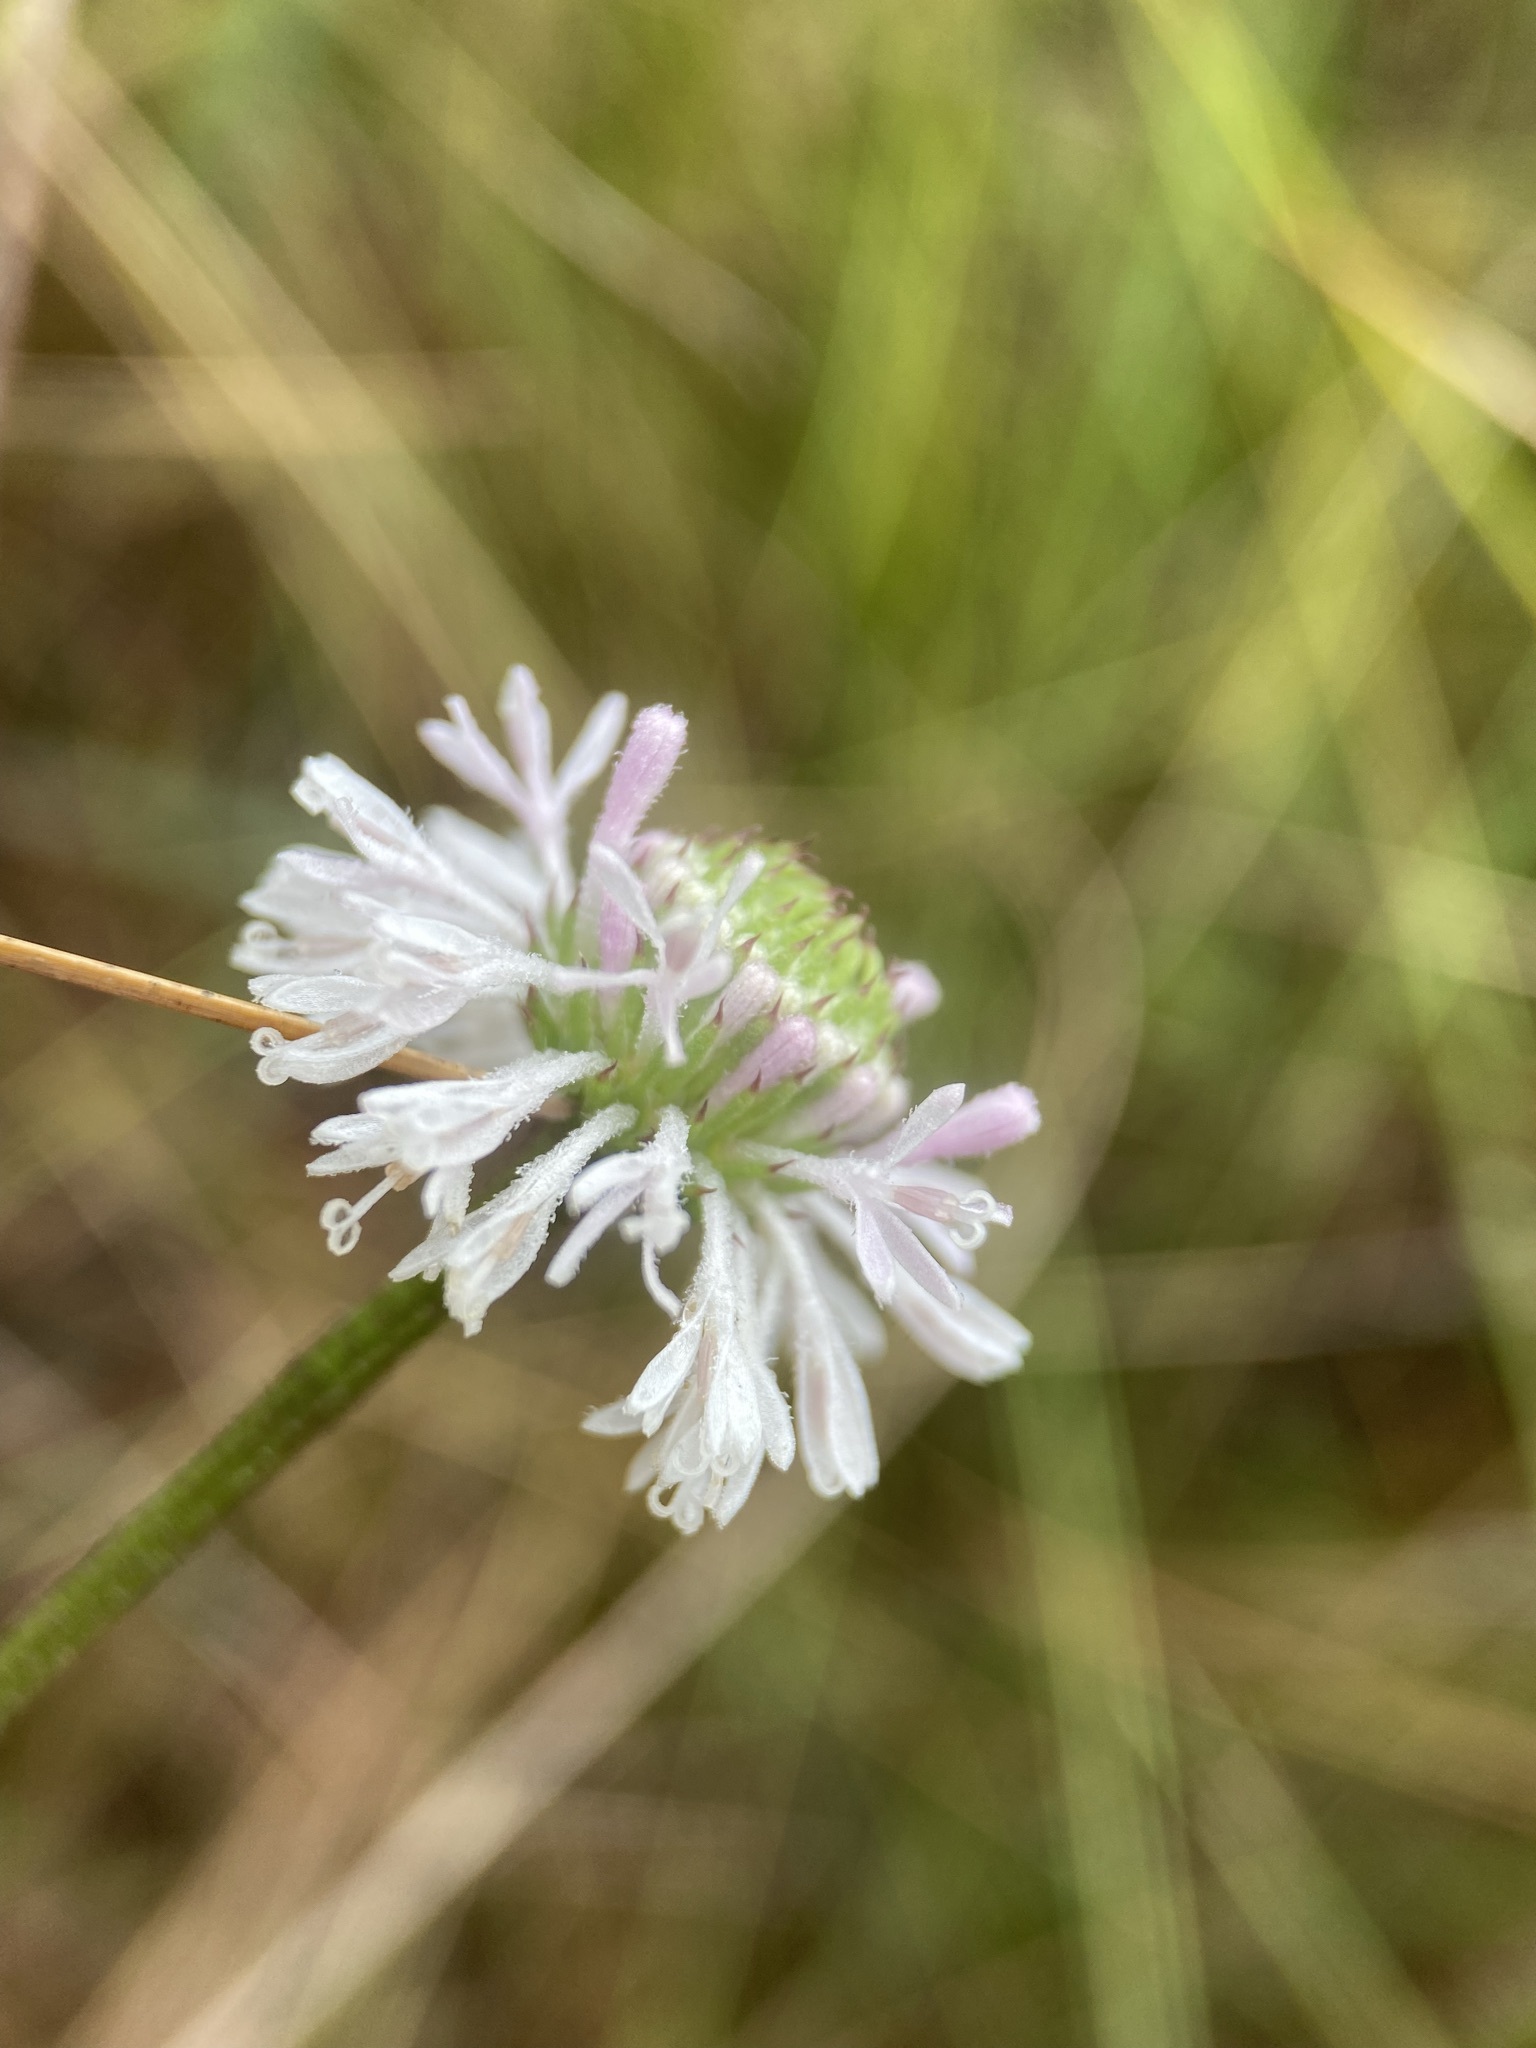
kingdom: Plantae
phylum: Tracheophyta
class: Magnoliopsida
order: Asterales
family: Asteraceae
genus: Marshallia
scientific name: Marshallia graminifolia
